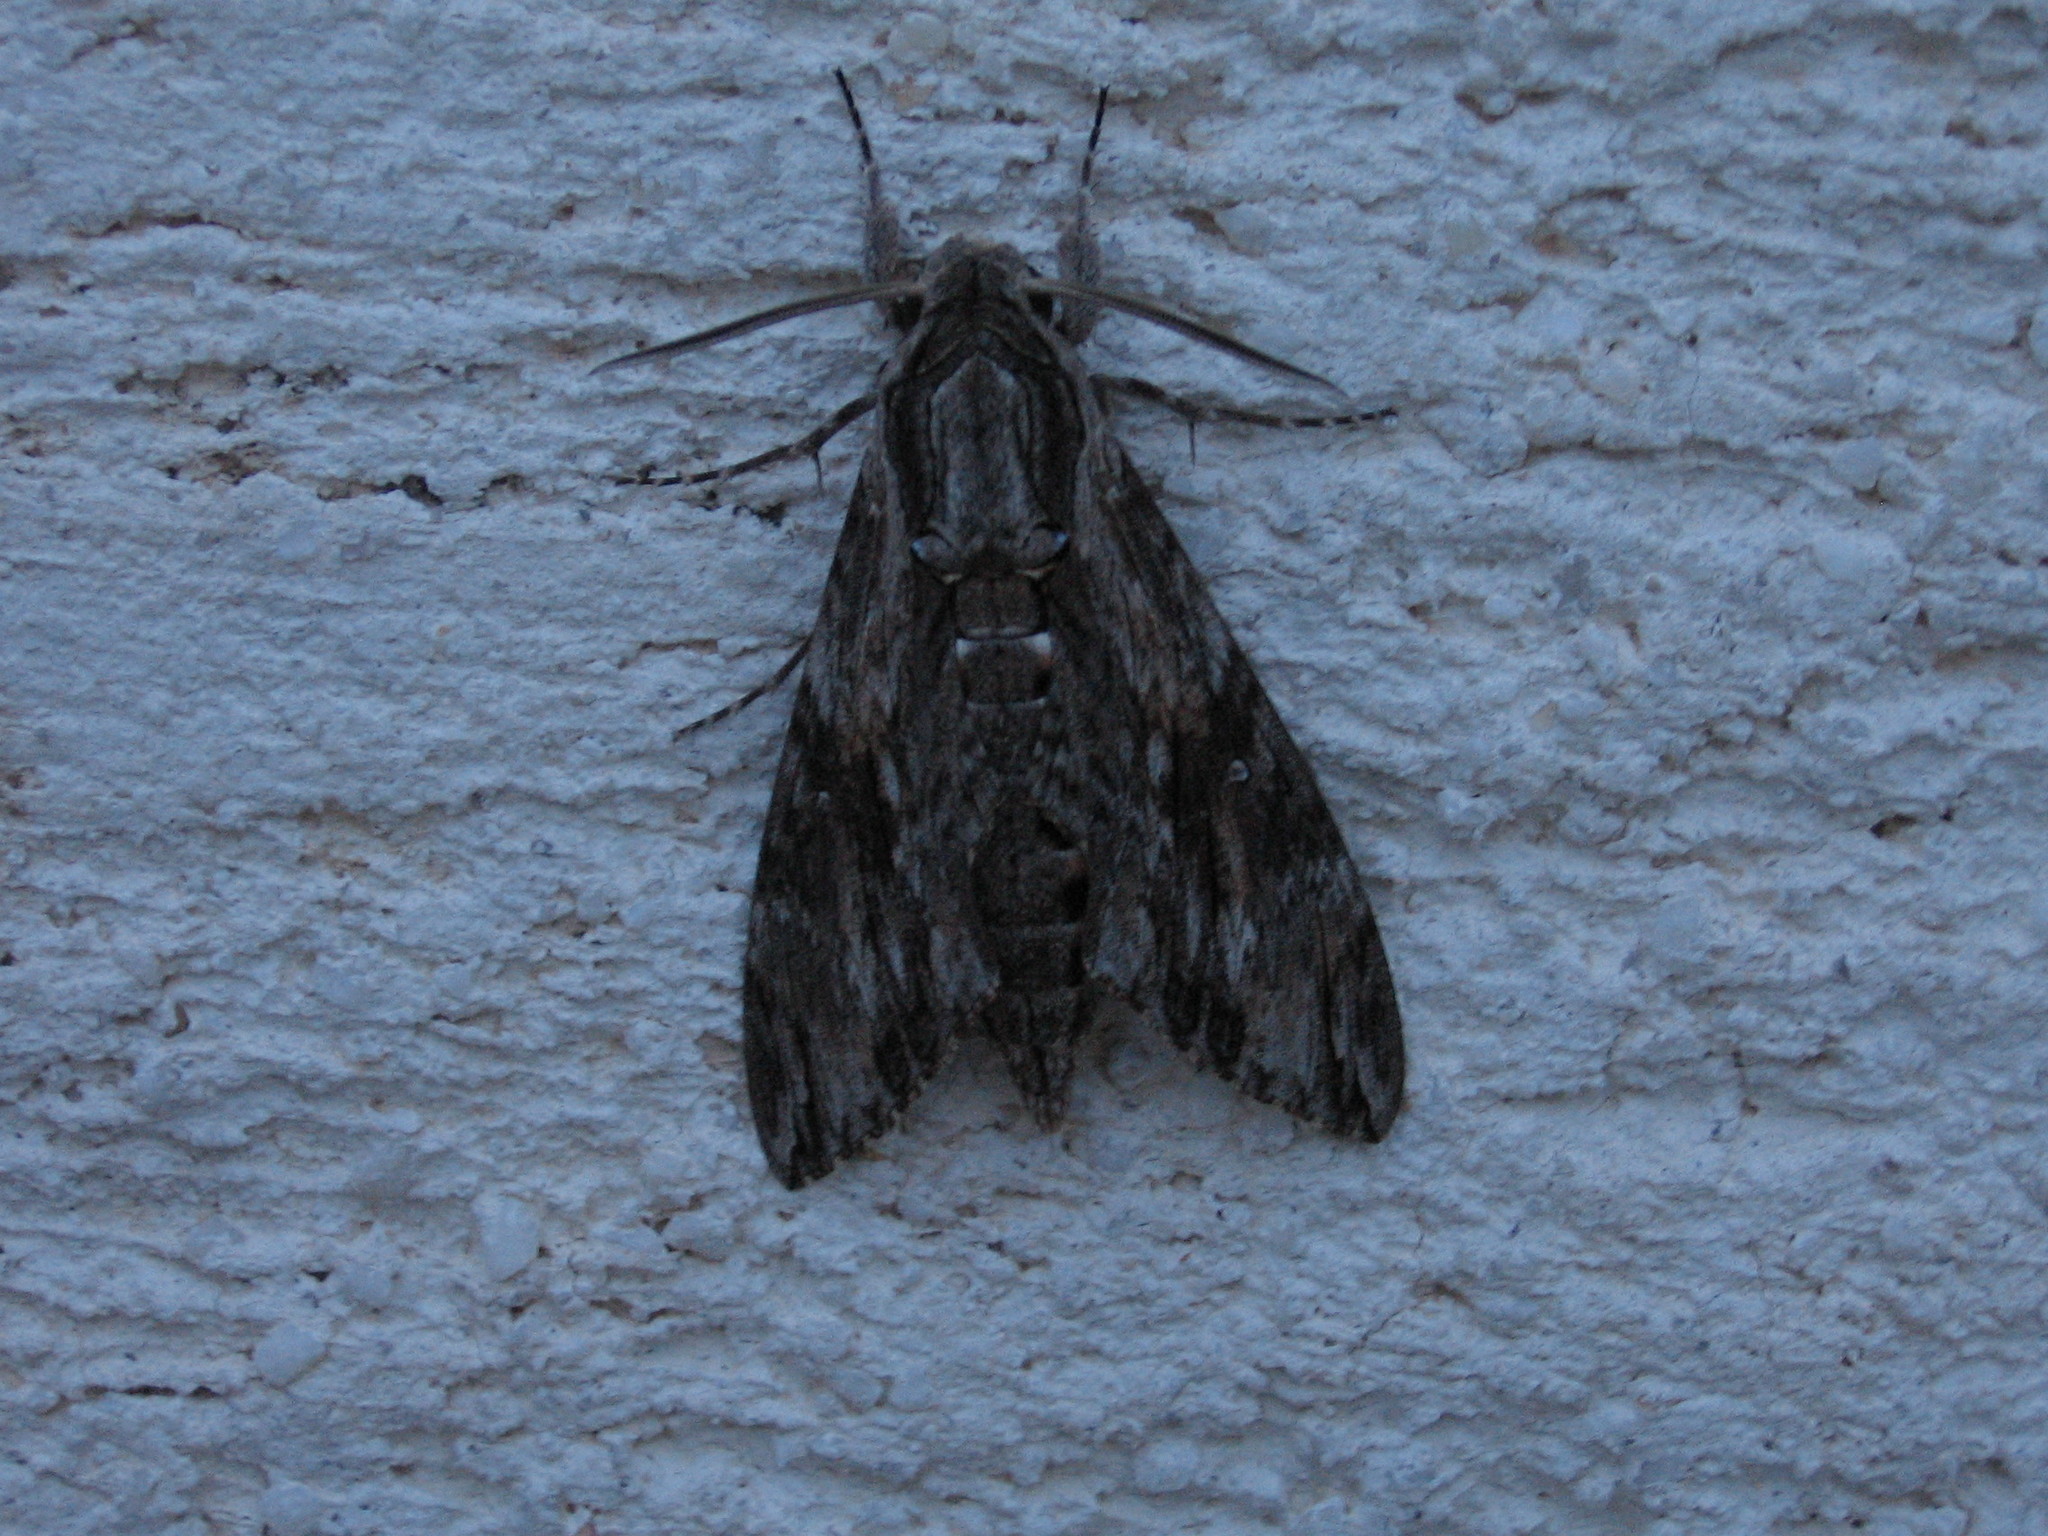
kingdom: Animalia
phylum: Arthropoda
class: Insecta
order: Lepidoptera
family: Sphingidae
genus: Agrius
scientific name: Agrius convolvuli
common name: Convolvulus hawkmoth
